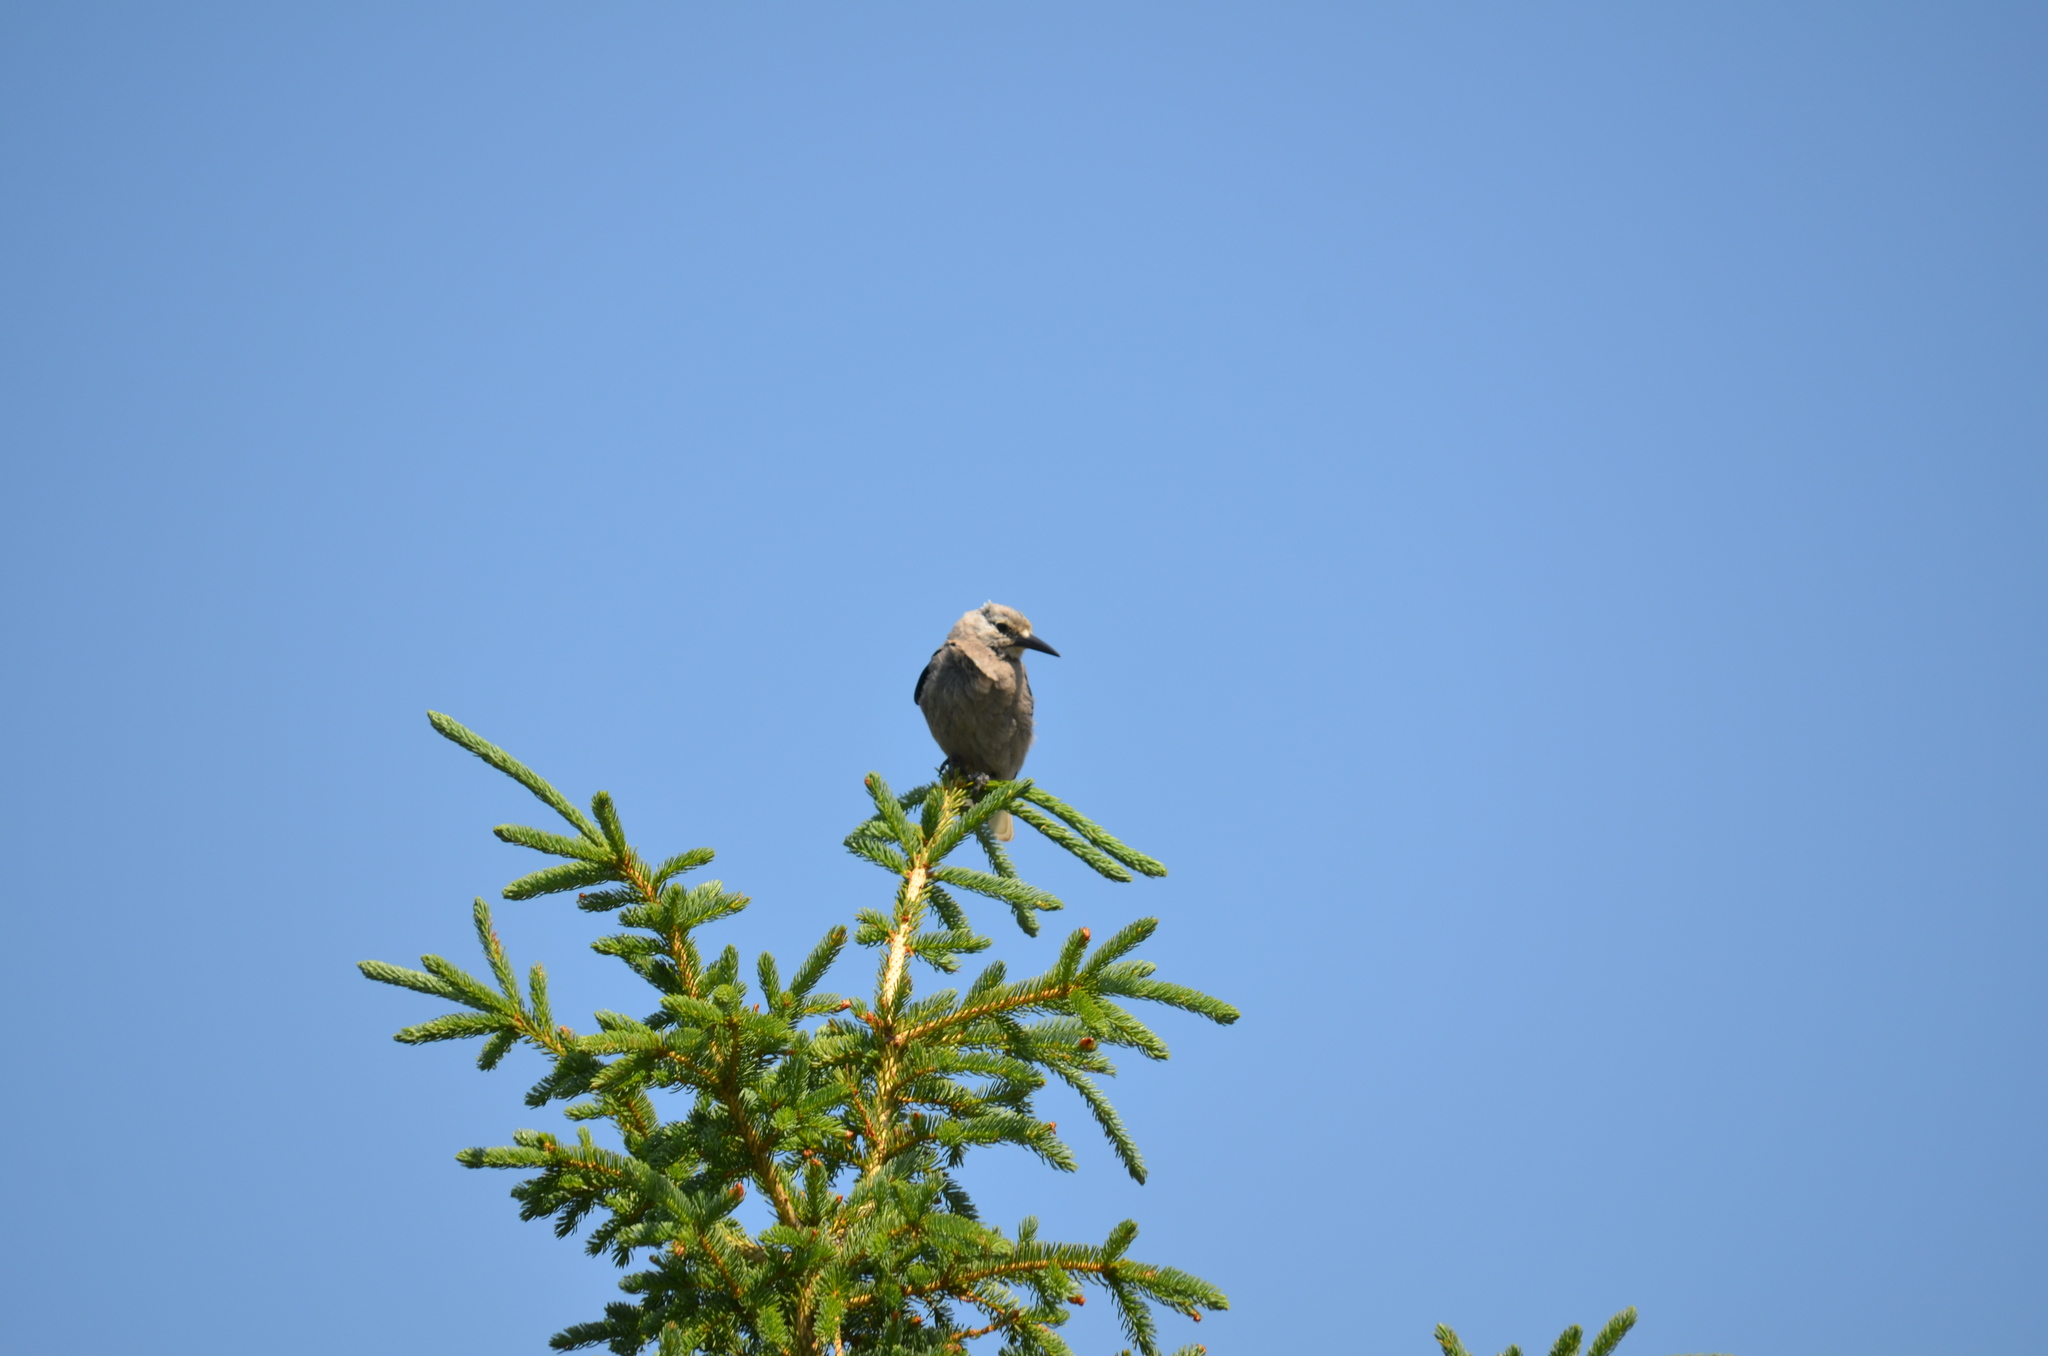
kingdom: Animalia
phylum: Chordata
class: Aves
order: Passeriformes
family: Corvidae
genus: Nucifraga
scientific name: Nucifraga columbiana
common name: Clark's nutcracker
